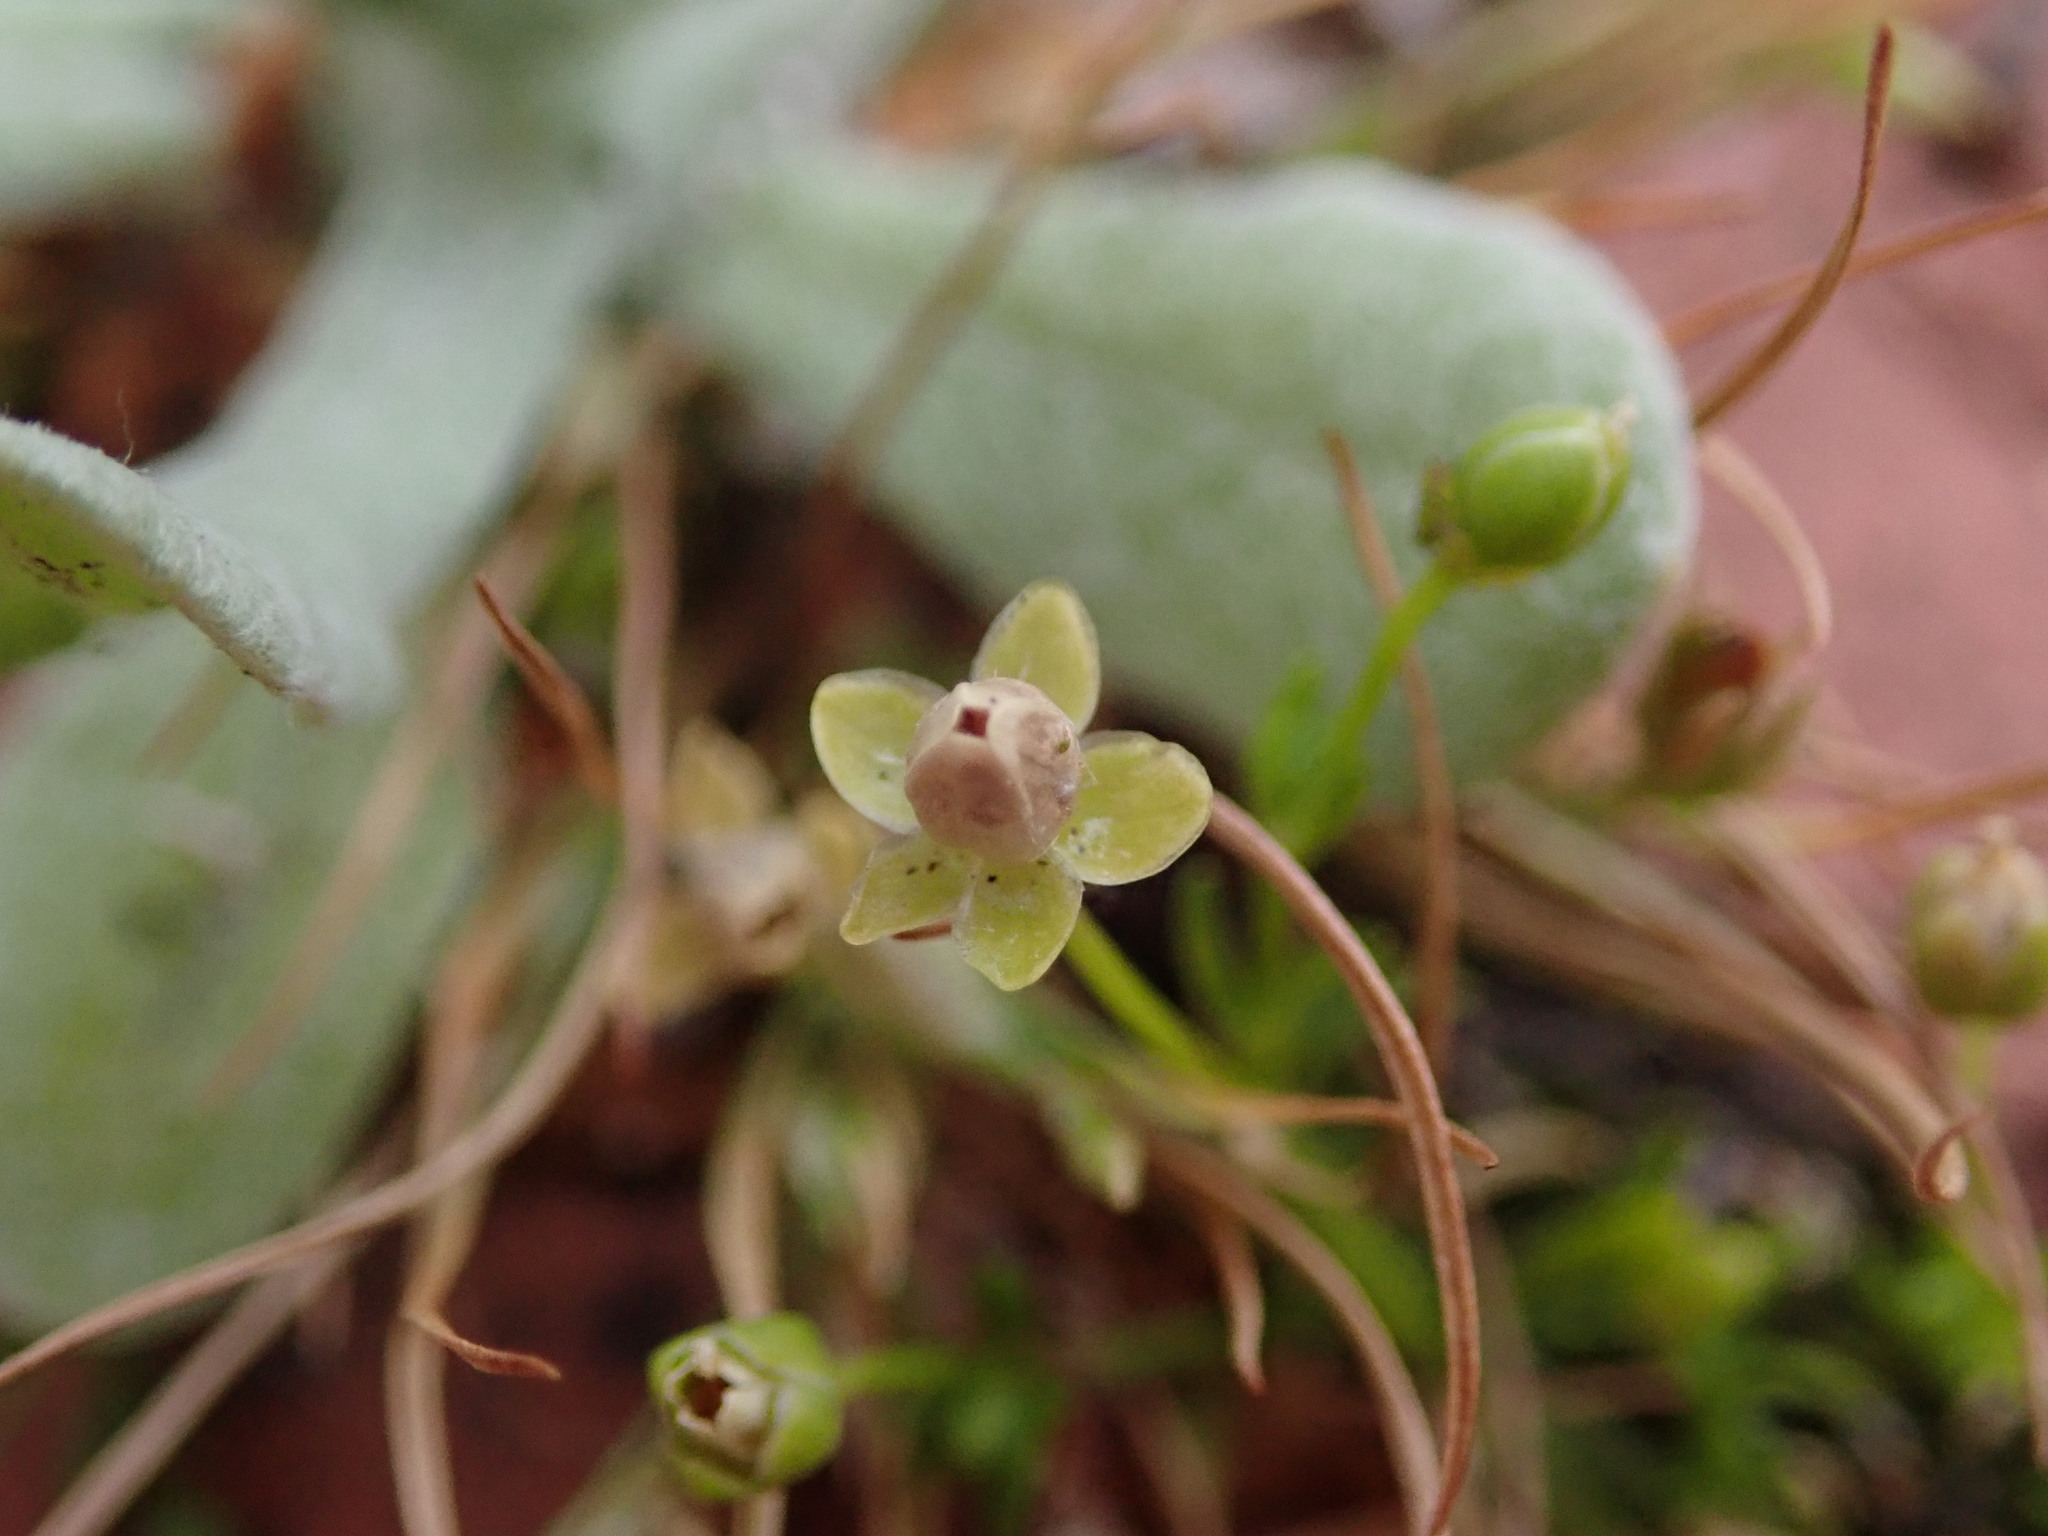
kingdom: Plantae
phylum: Tracheophyta
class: Magnoliopsida
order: Caryophyllales
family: Caryophyllaceae
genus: Sagina
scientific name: Sagina procumbens
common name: Procumbent pearlwort
